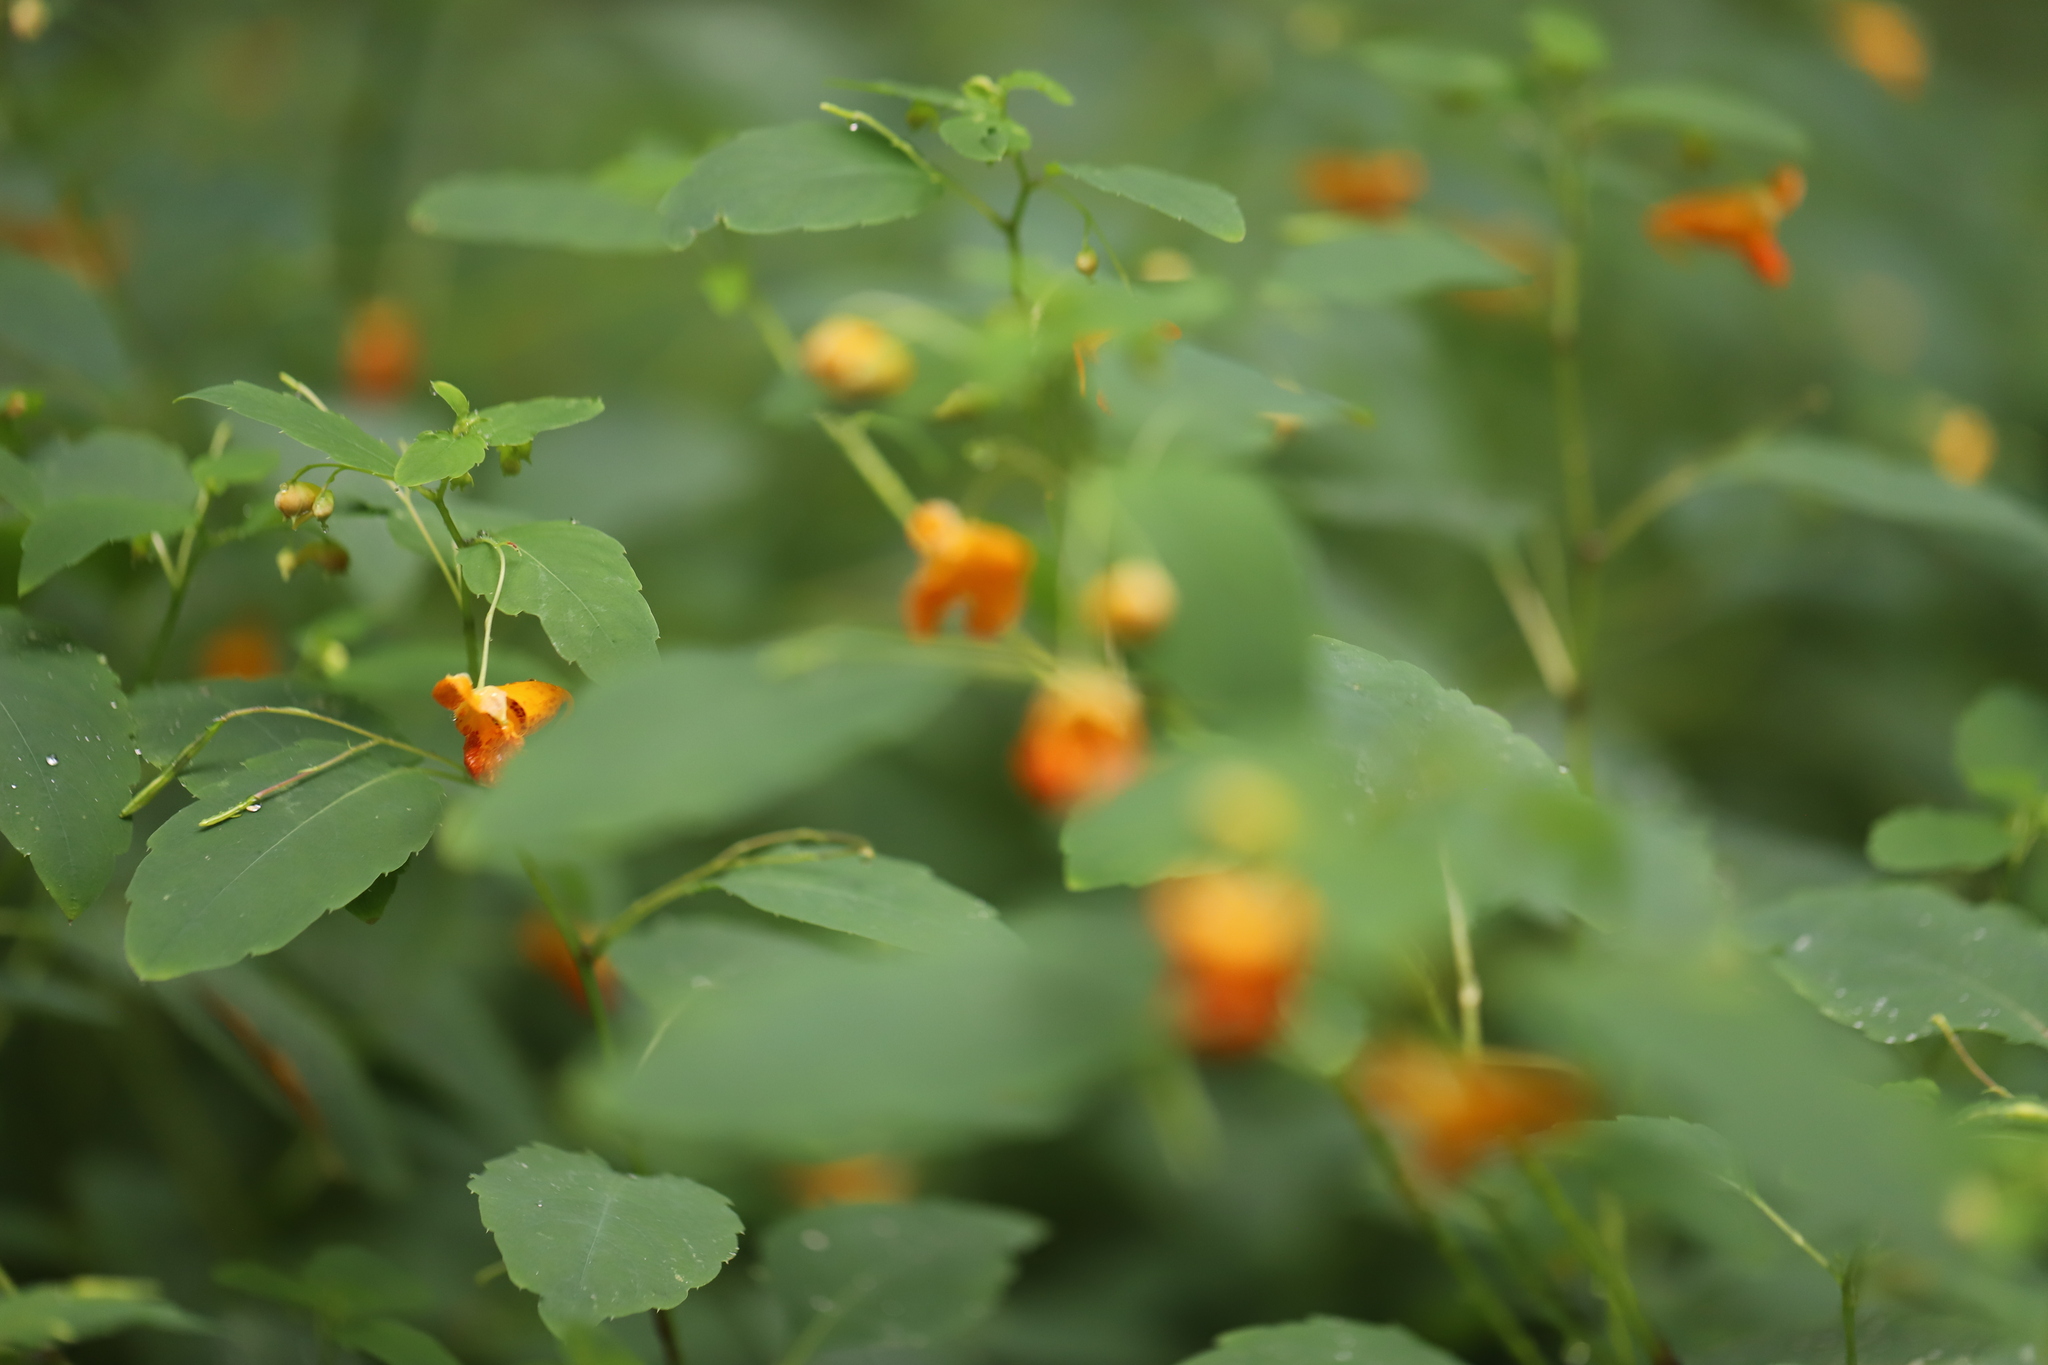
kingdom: Plantae
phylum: Tracheophyta
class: Magnoliopsida
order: Ericales
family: Balsaminaceae
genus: Impatiens
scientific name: Impatiens capensis
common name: Orange balsam
